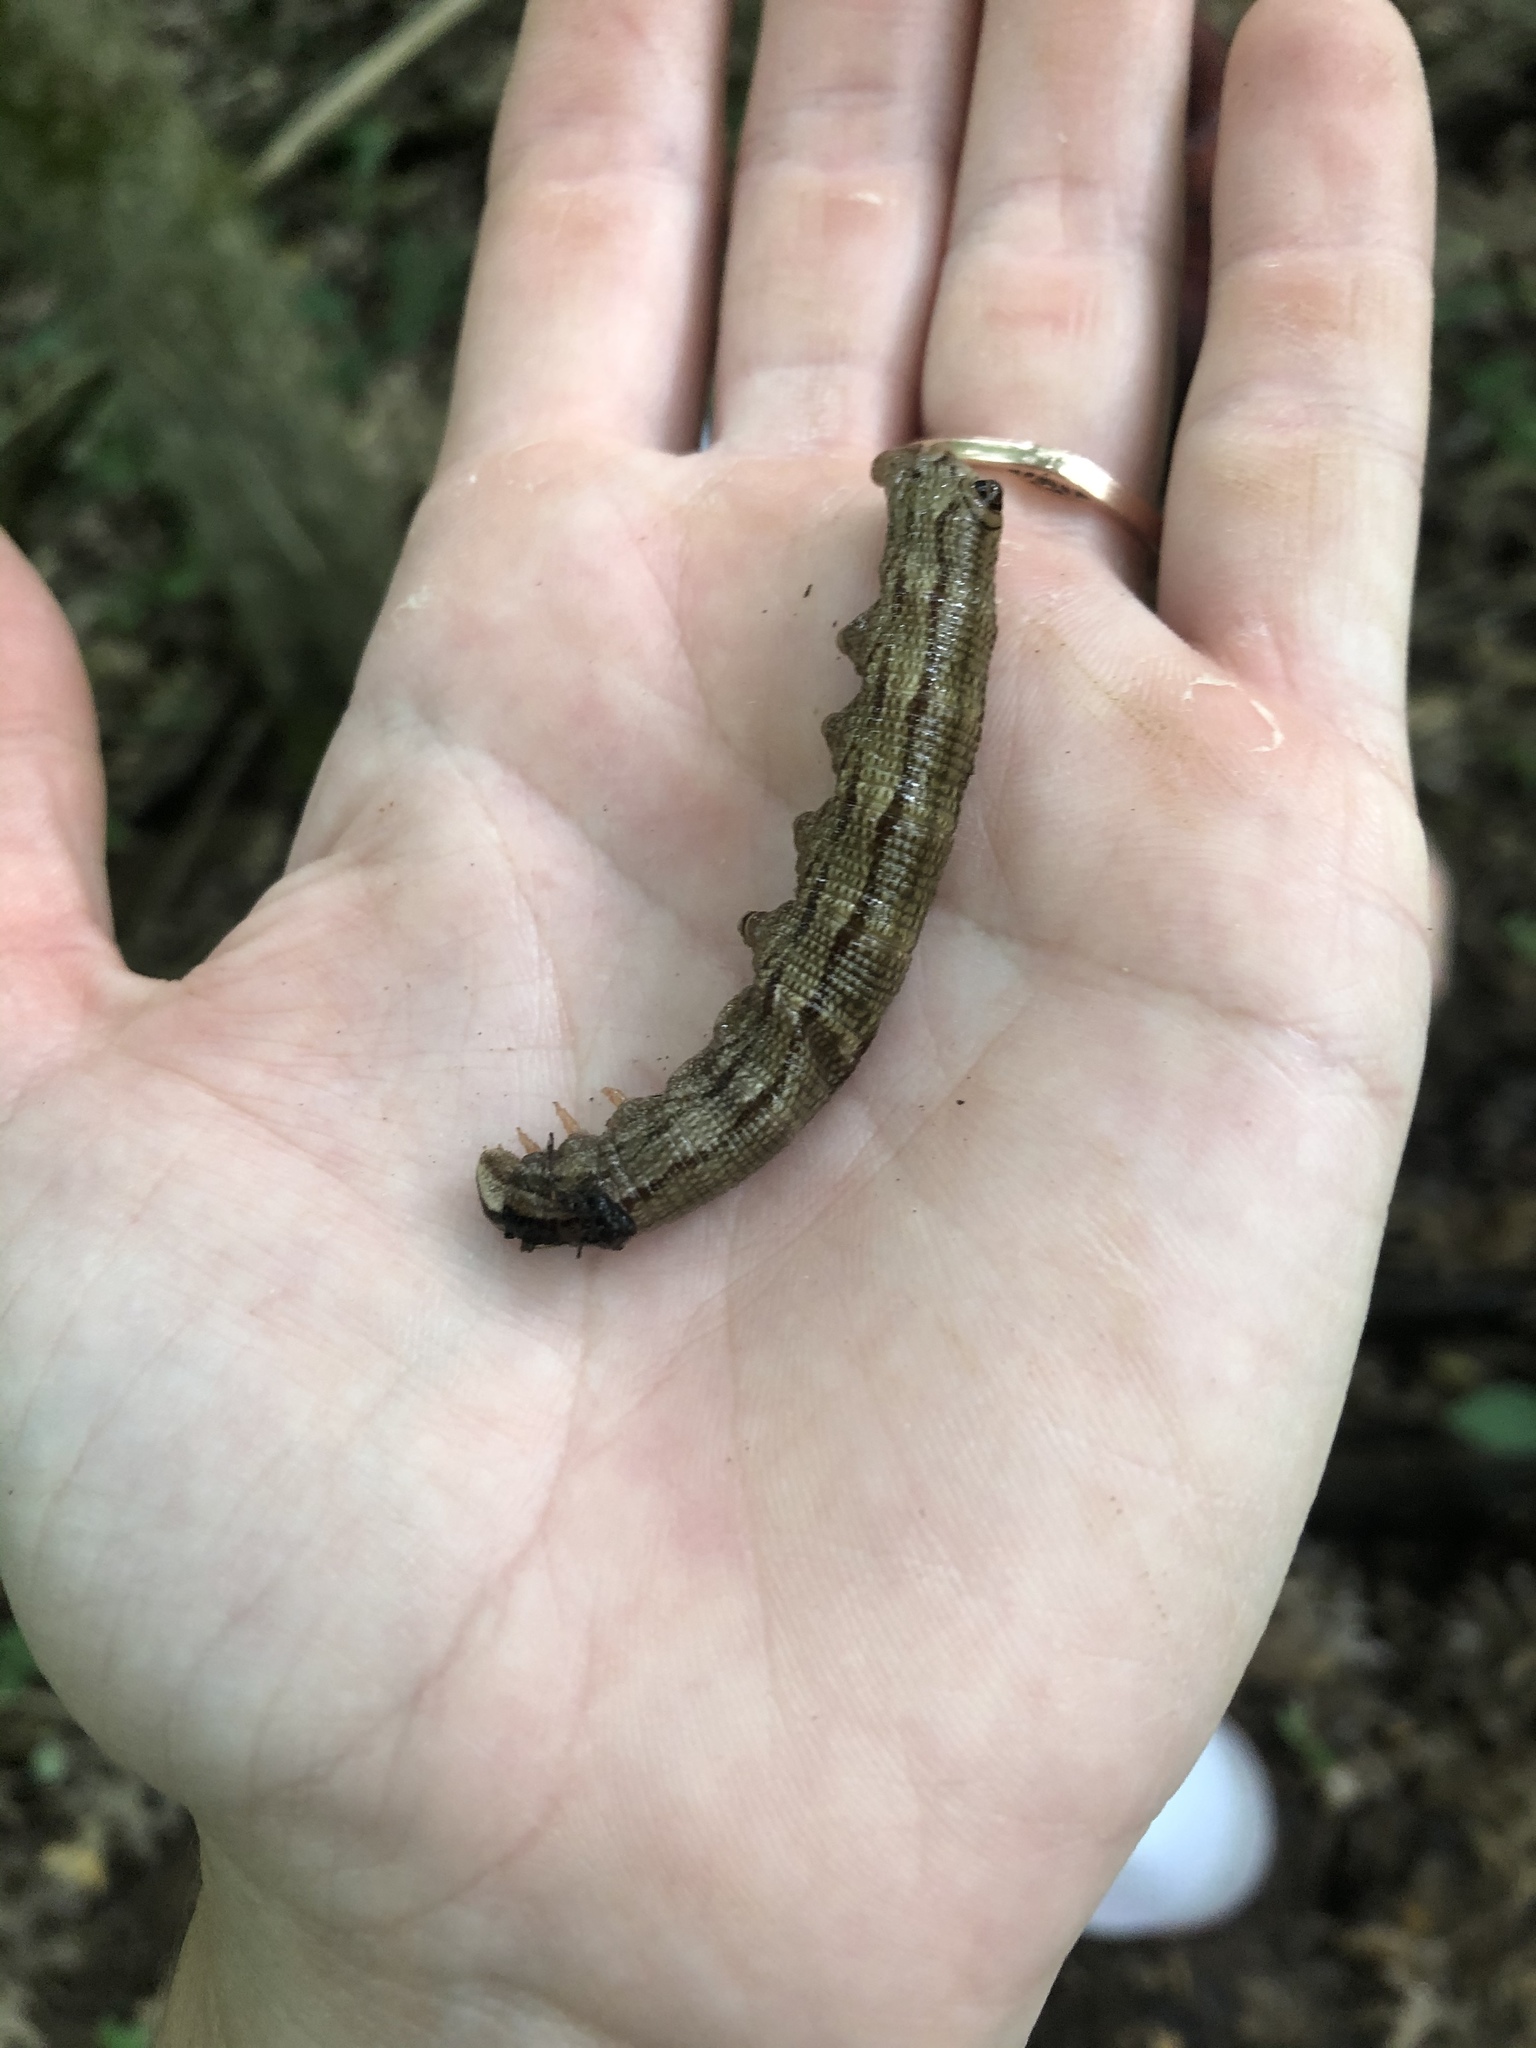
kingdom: Animalia
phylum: Arthropoda
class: Insecta
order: Lepidoptera
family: Sphingidae
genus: Sphecodina
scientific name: Sphecodina abbottii
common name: Abbott's sphinx
